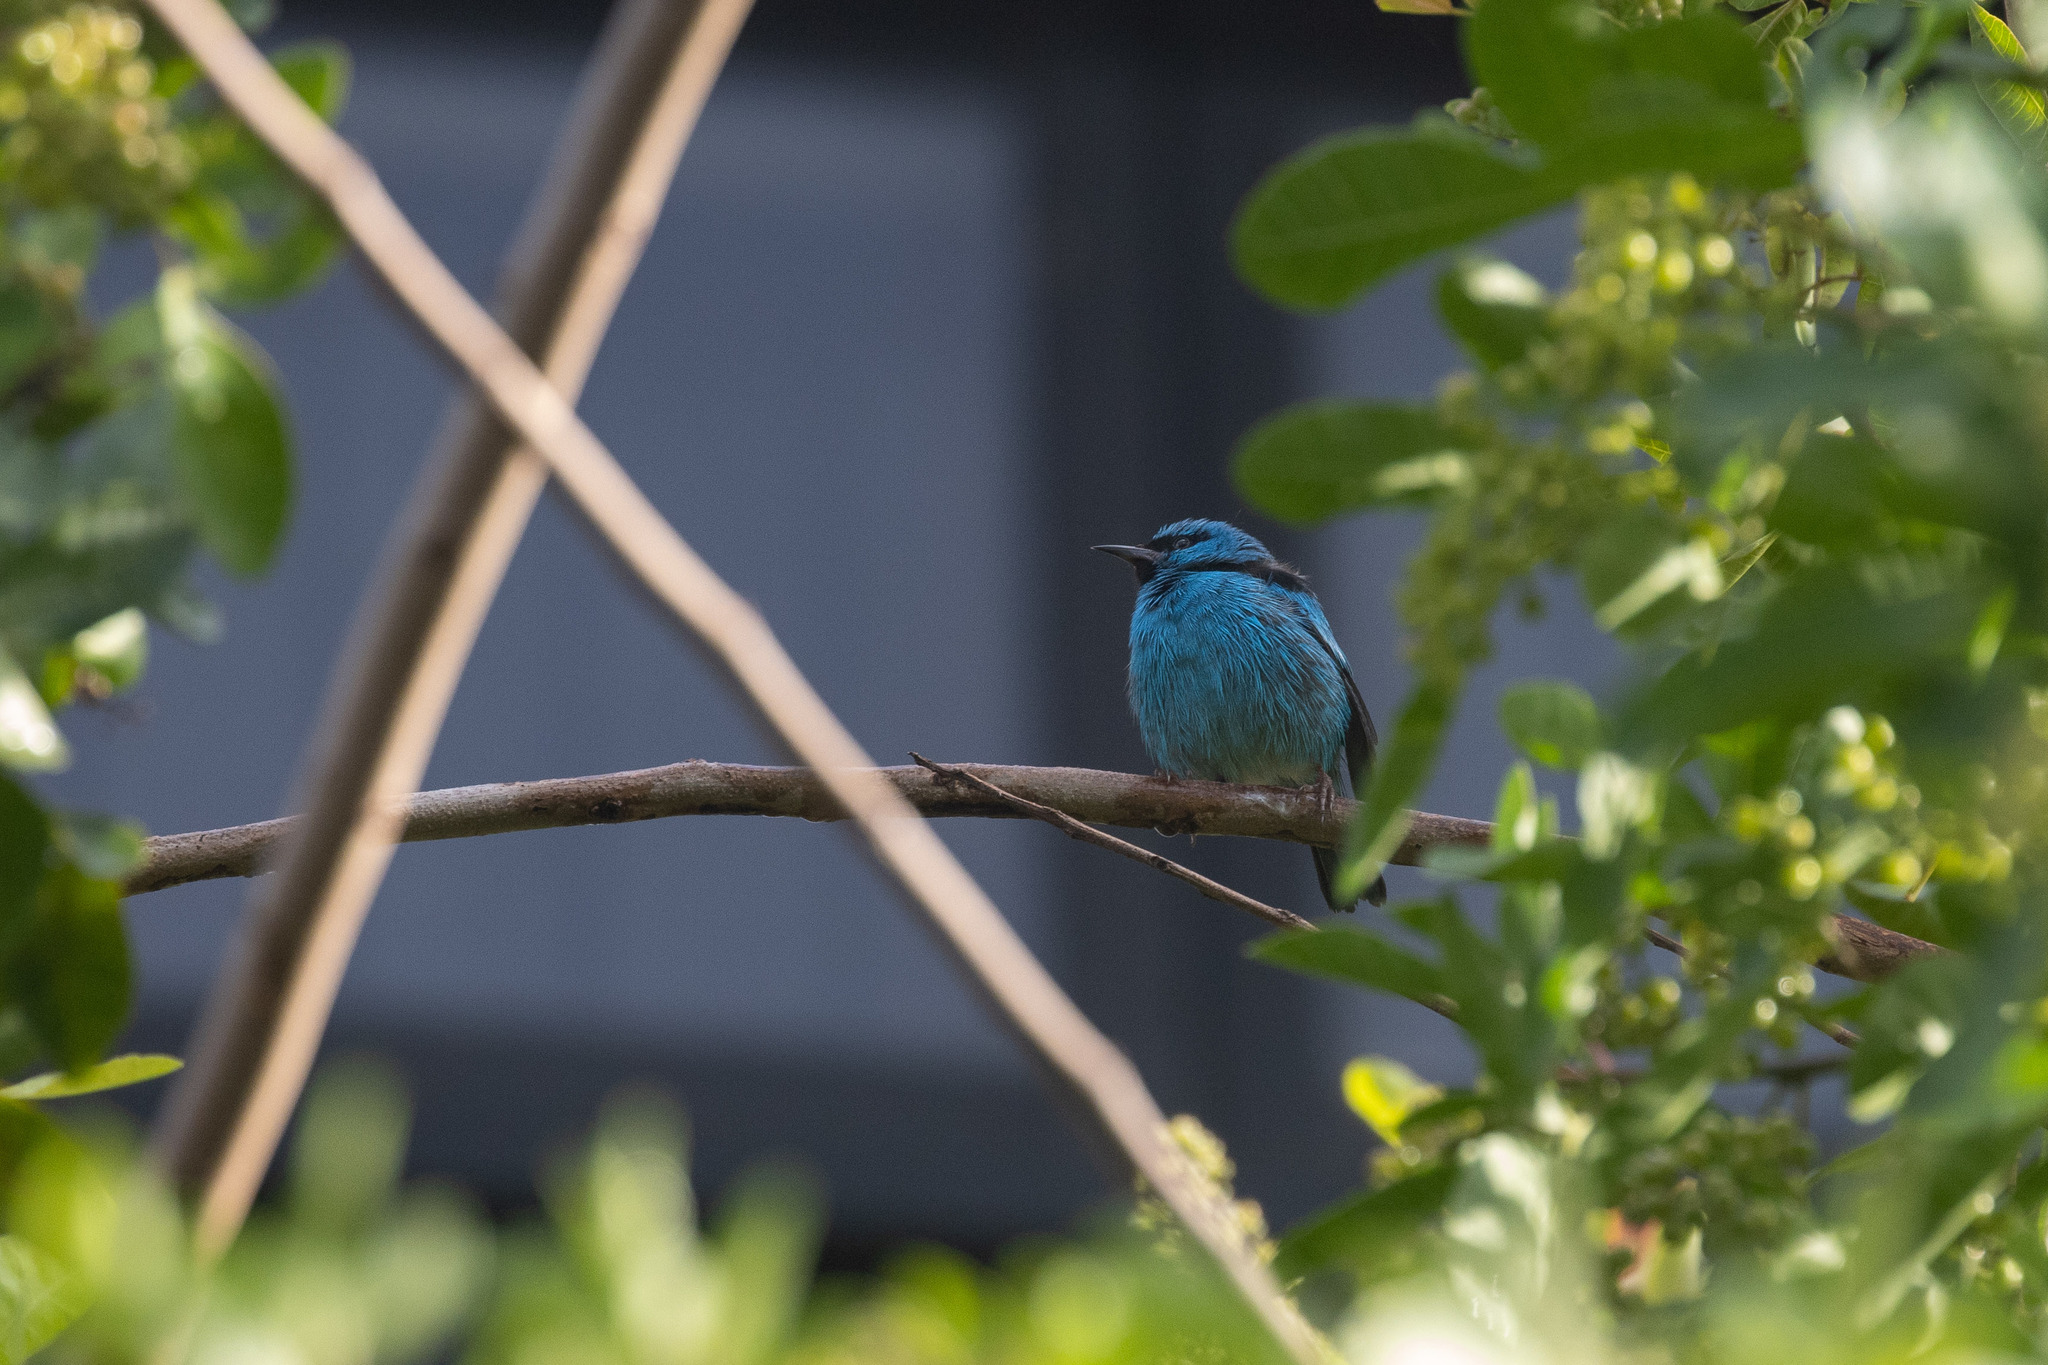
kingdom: Animalia
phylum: Chordata
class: Aves
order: Passeriformes
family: Thraupidae
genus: Dacnis
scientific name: Dacnis cayana
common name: Blue dacnis
